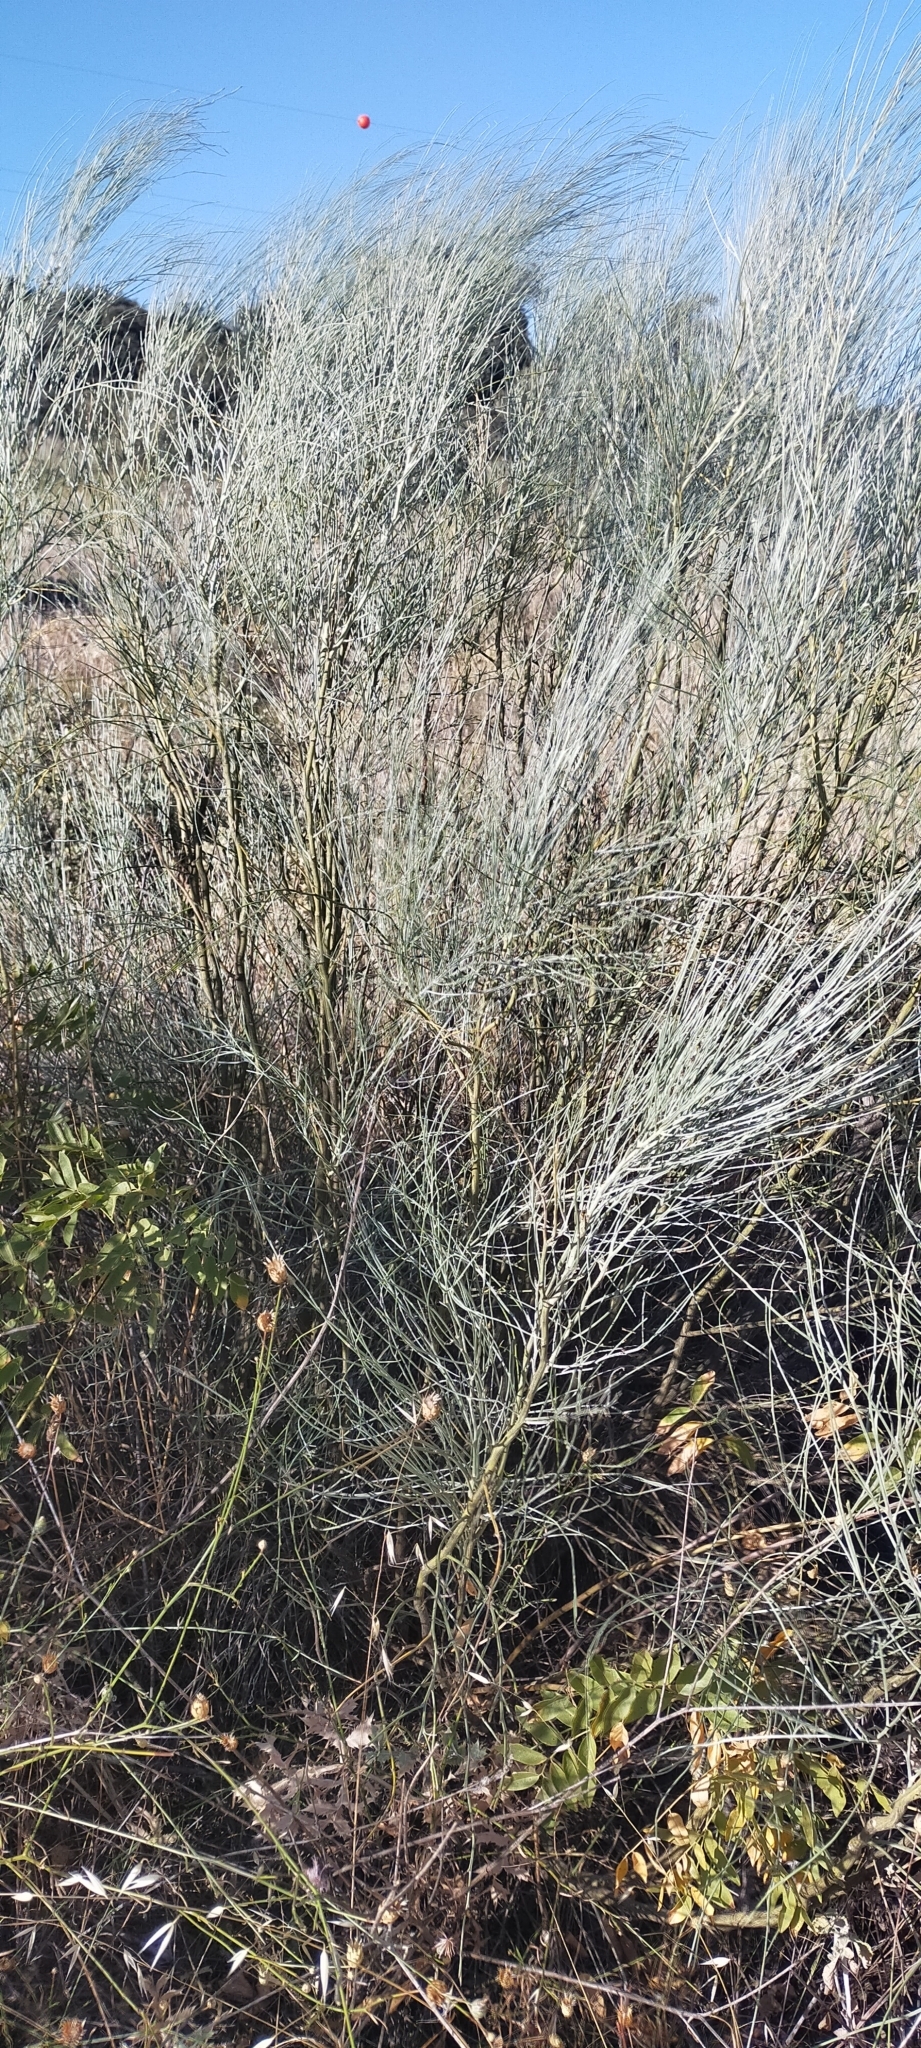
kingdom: Plantae
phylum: Tracheophyta
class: Magnoliopsida
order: Fabales
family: Fabaceae
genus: Retama
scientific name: Retama sphaerocarpa
